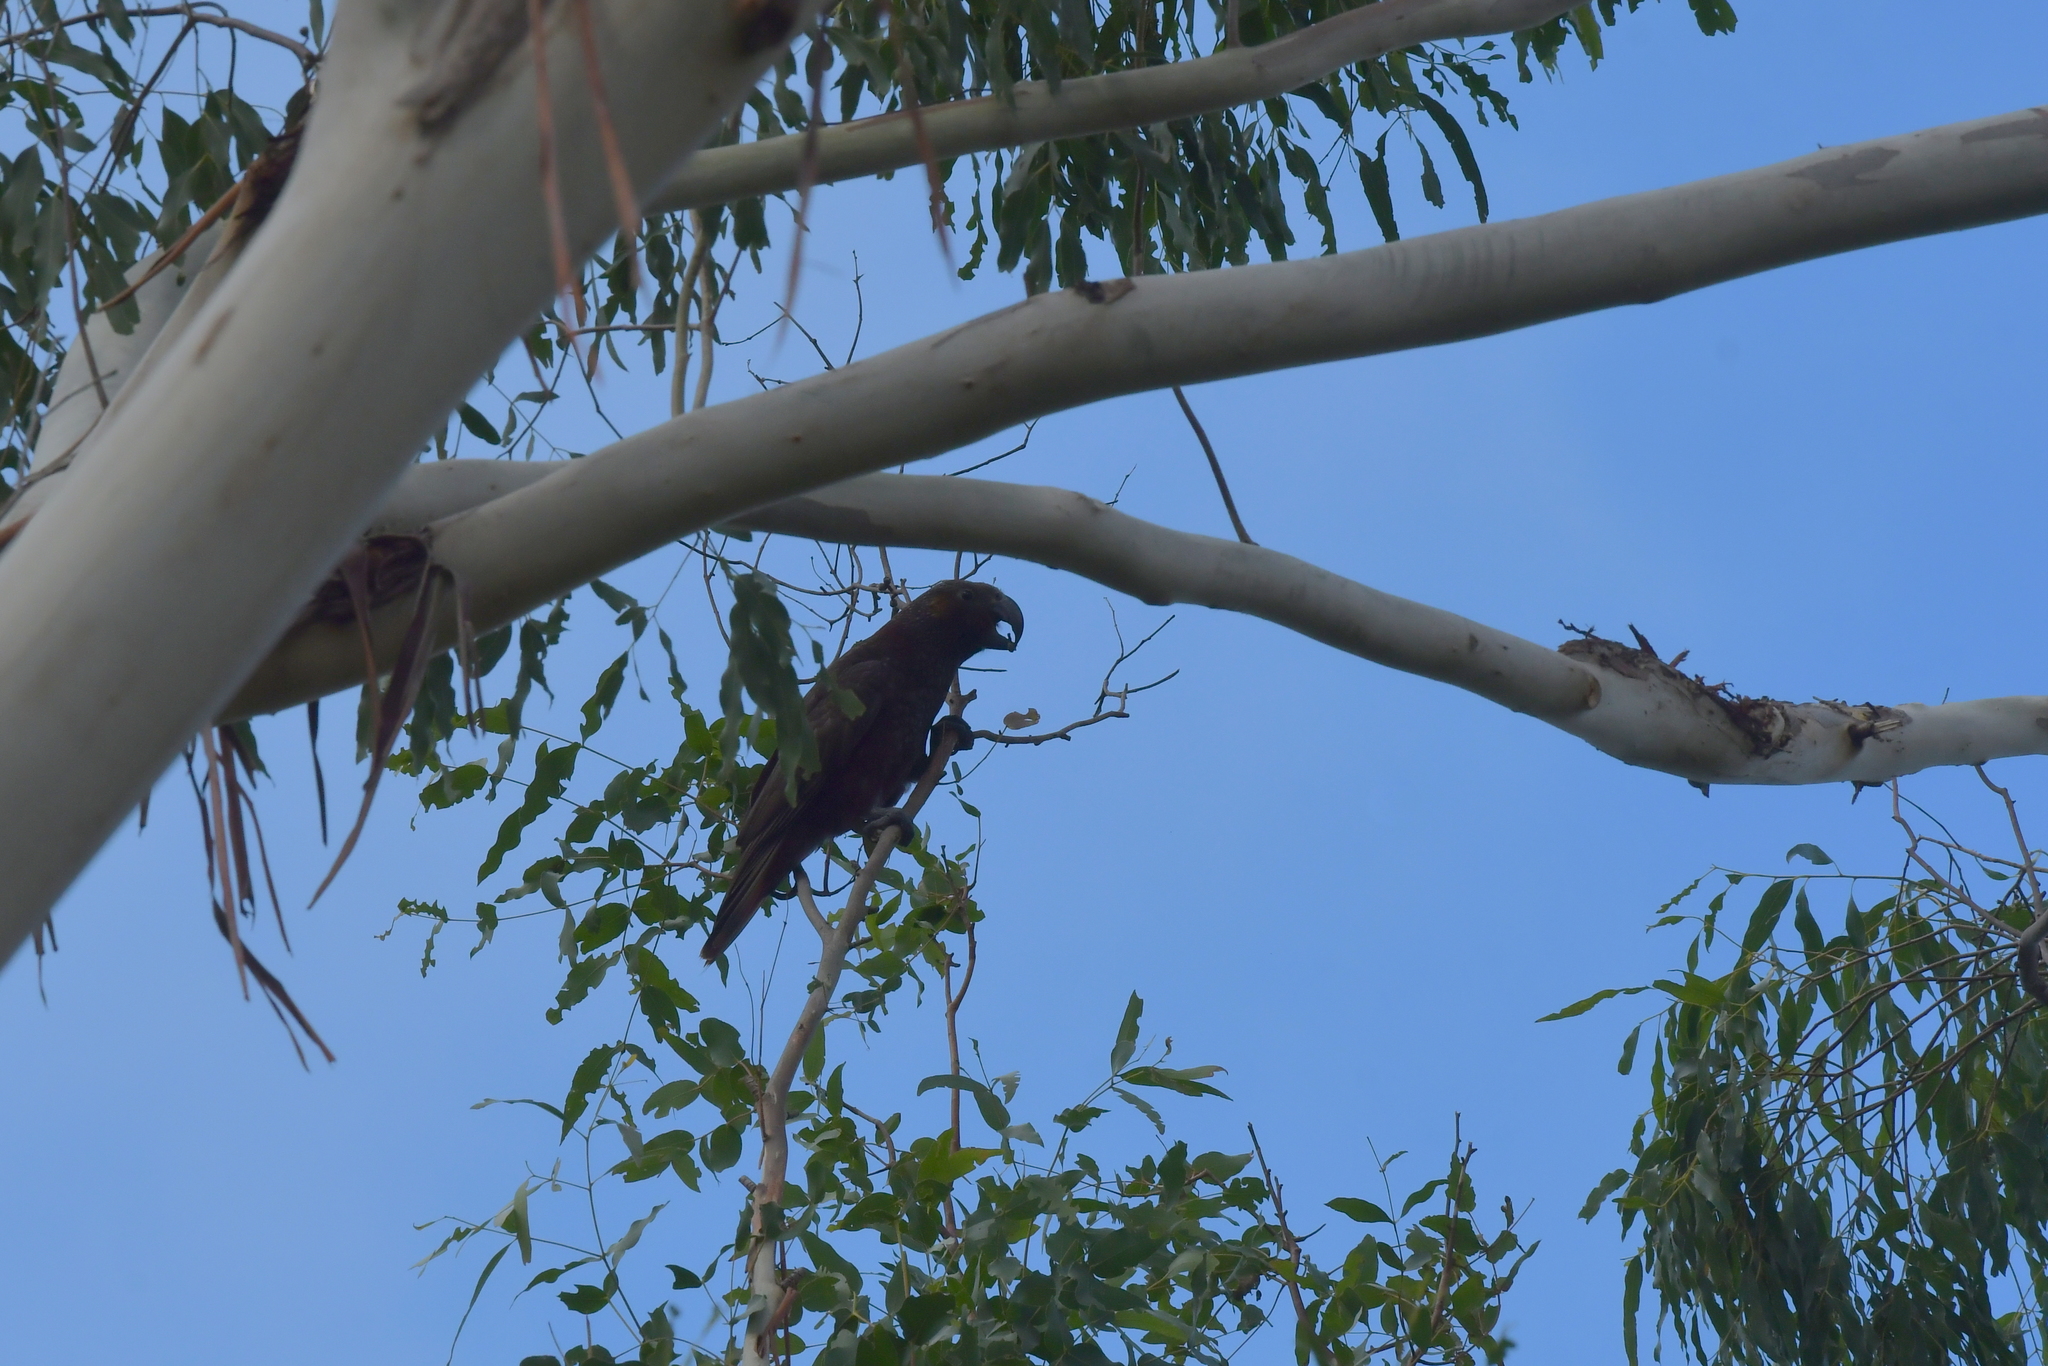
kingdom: Animalia
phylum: Chordata
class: Aves
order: Psittaciformes
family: Psittacidae
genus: Nestor
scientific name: Nestor meridionalis
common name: New zealand kaka
